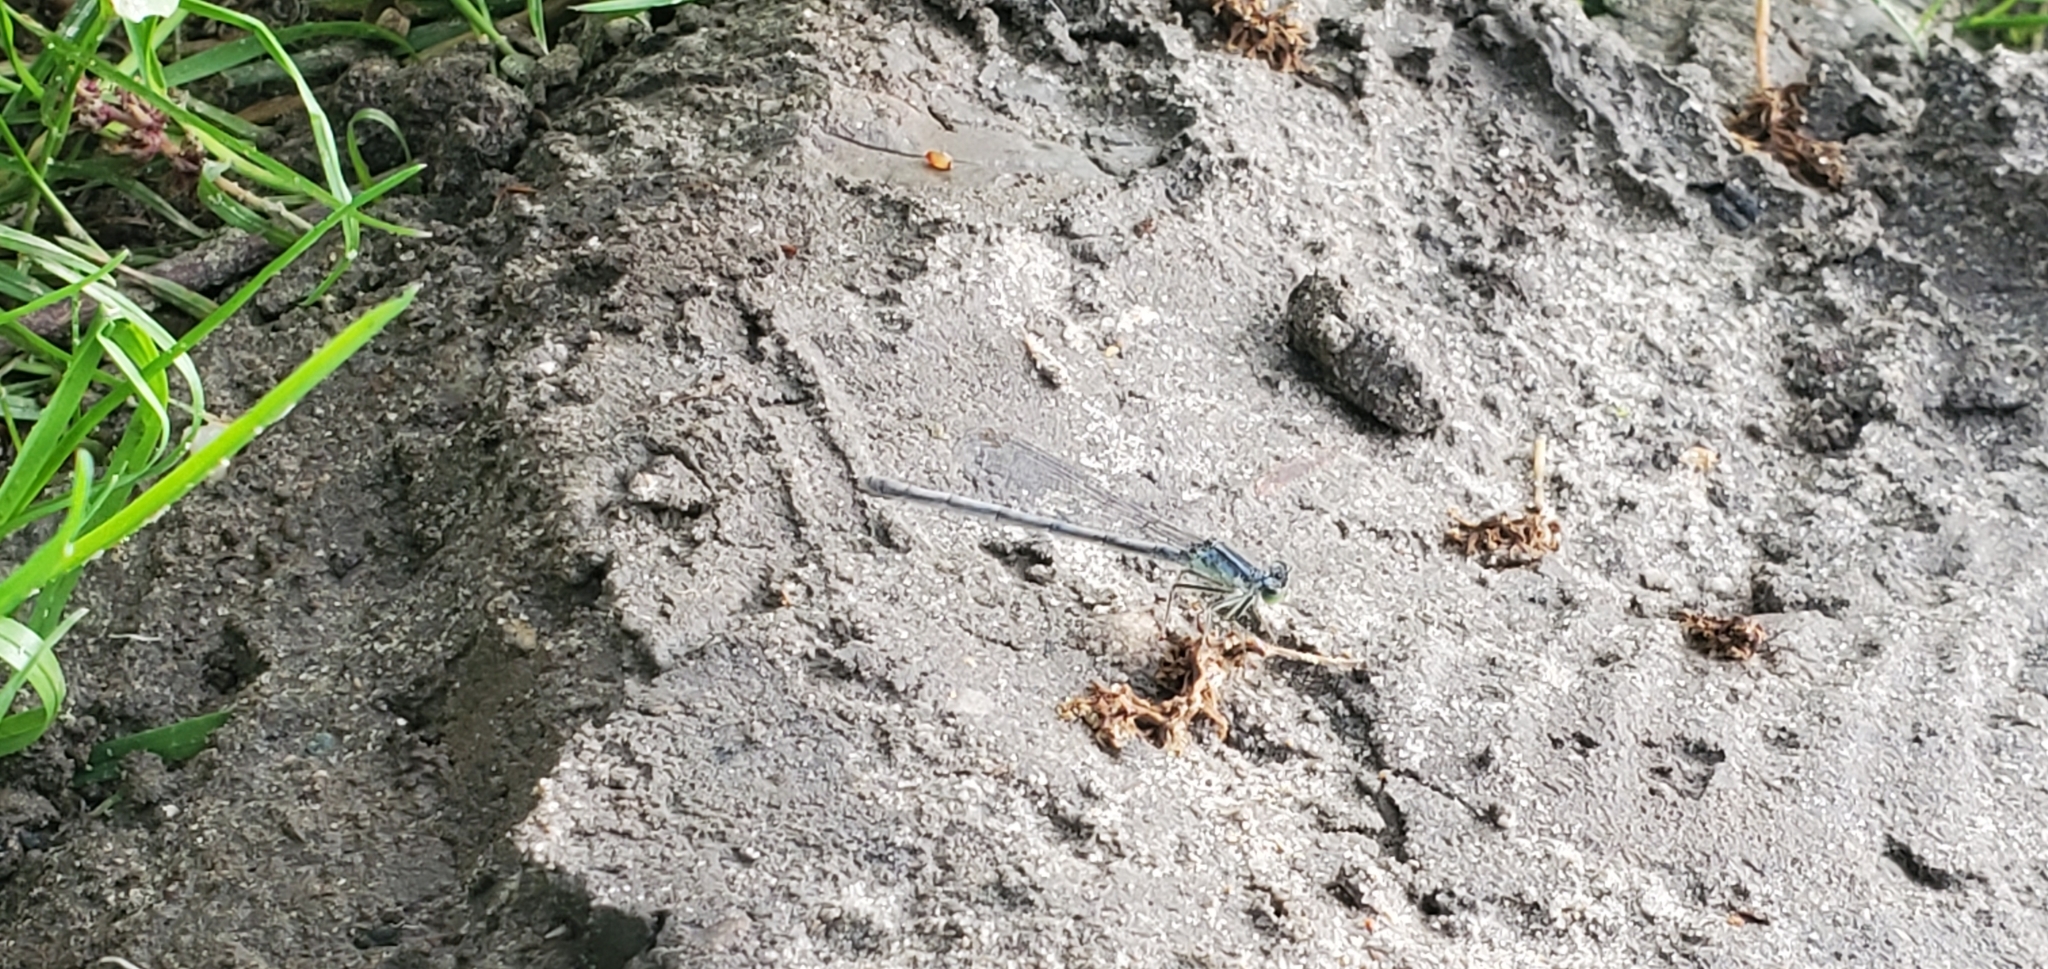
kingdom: Animalia
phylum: Arthropoda
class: Insecta
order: Odonata
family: Coenagrionidae
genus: Ischnura
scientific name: Ischnura verticalis
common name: Eastern forktail
